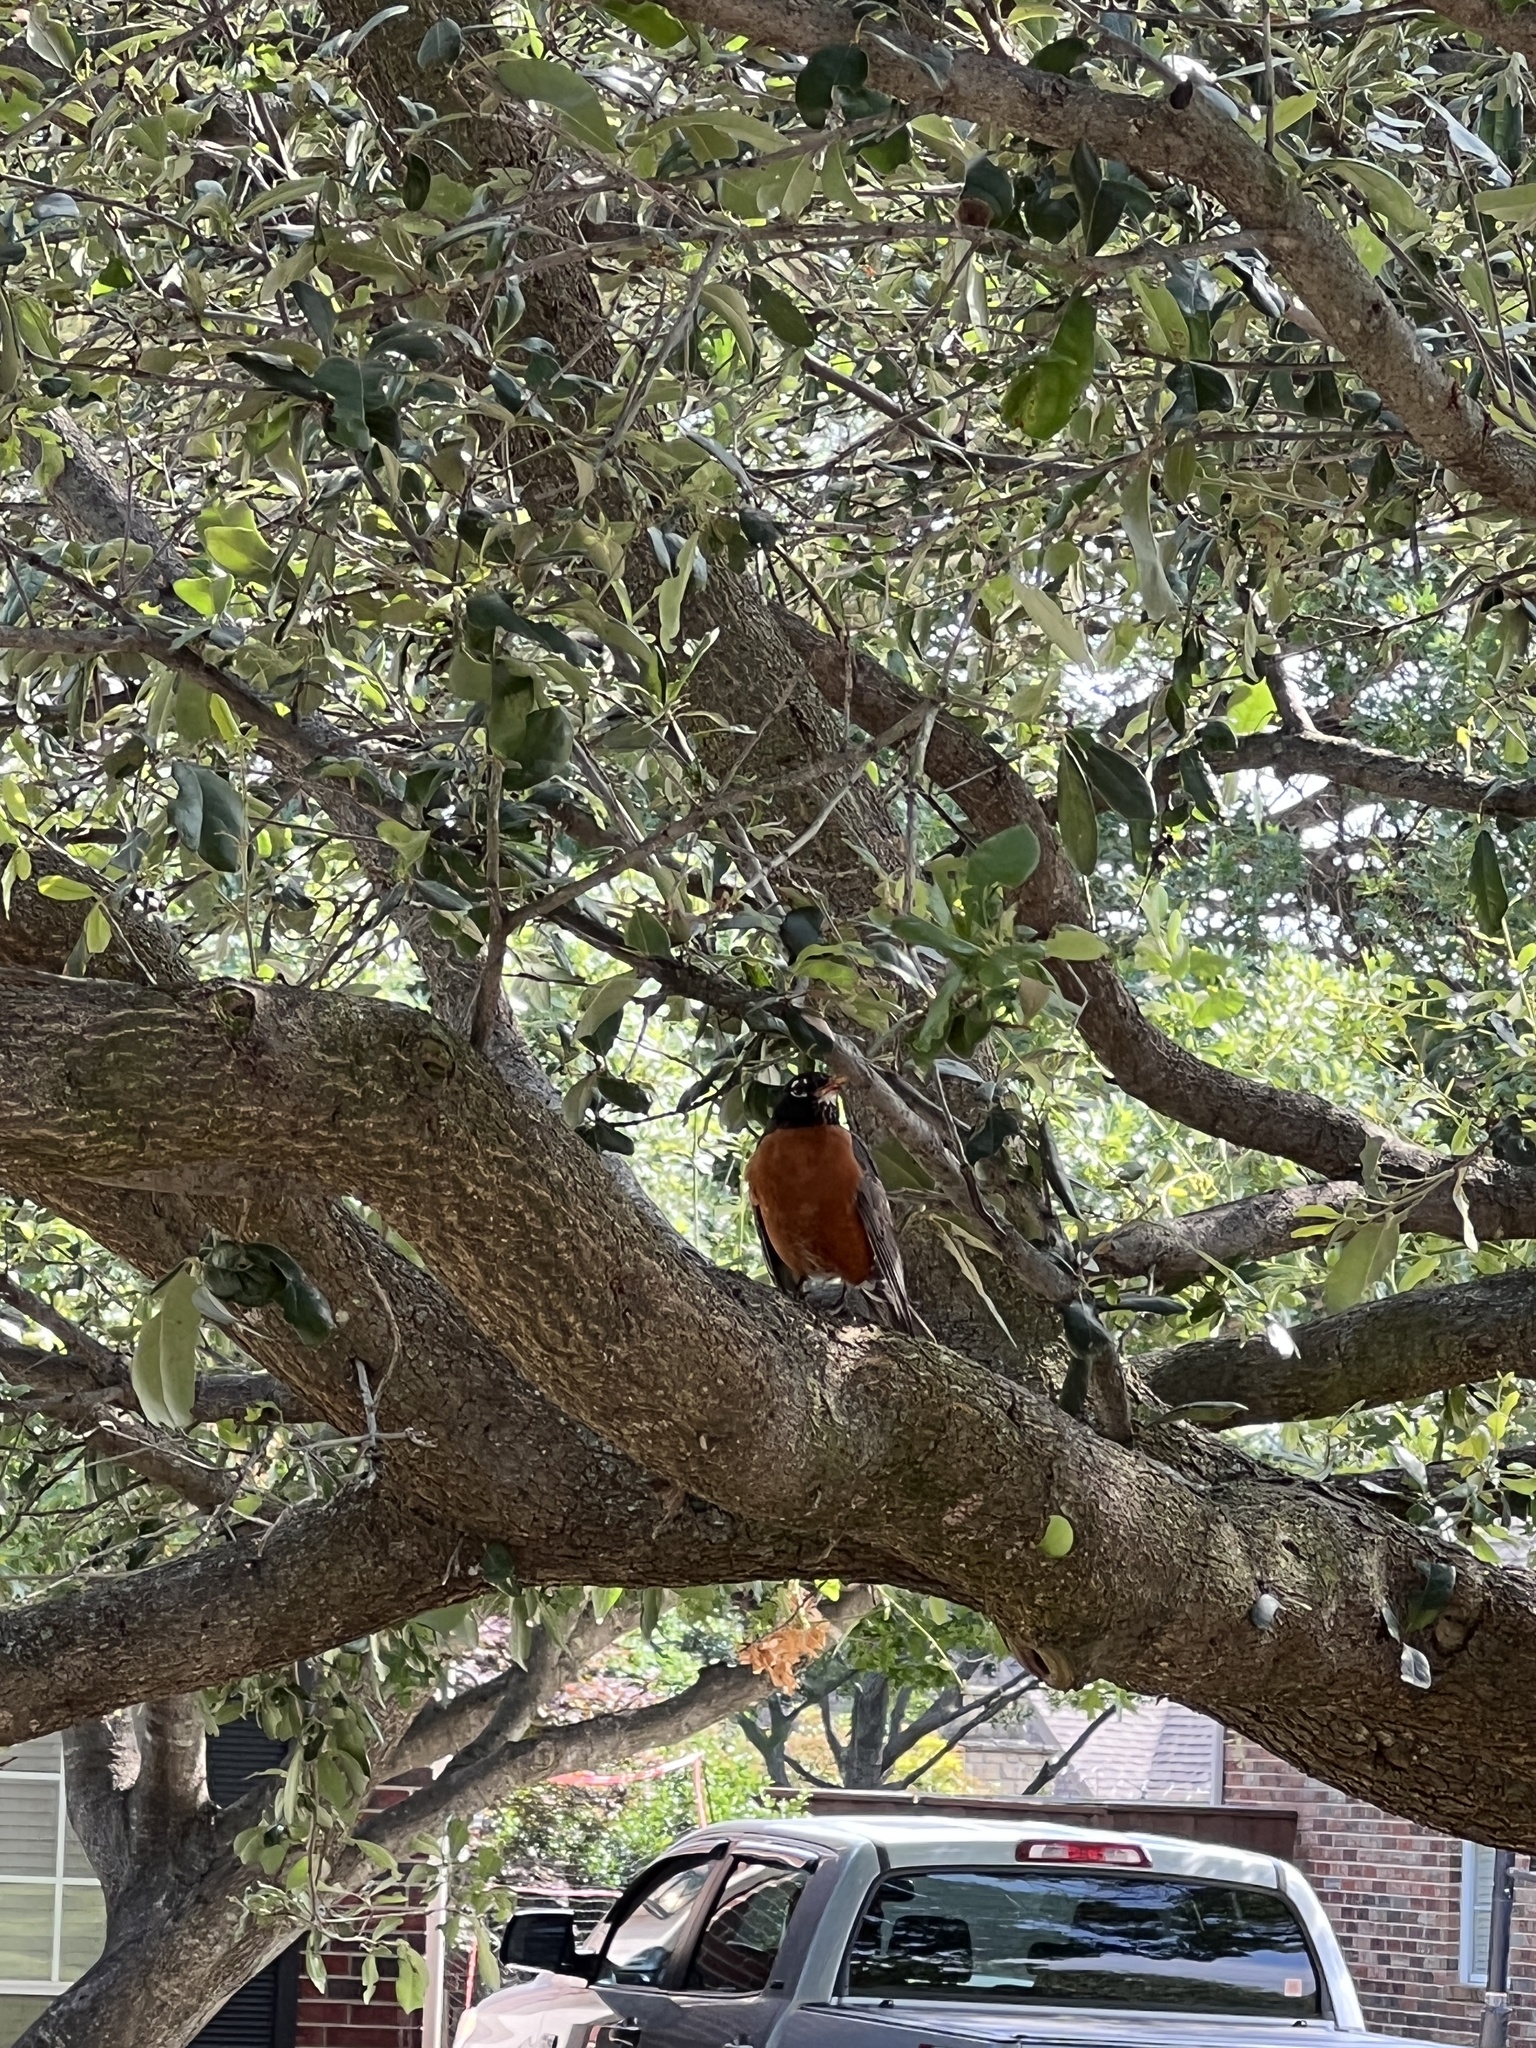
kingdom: Animalia
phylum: Chordata
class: Aves
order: Passeriformes
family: Turdidae
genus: Turdus
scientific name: Turdus migratorius
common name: American robin
